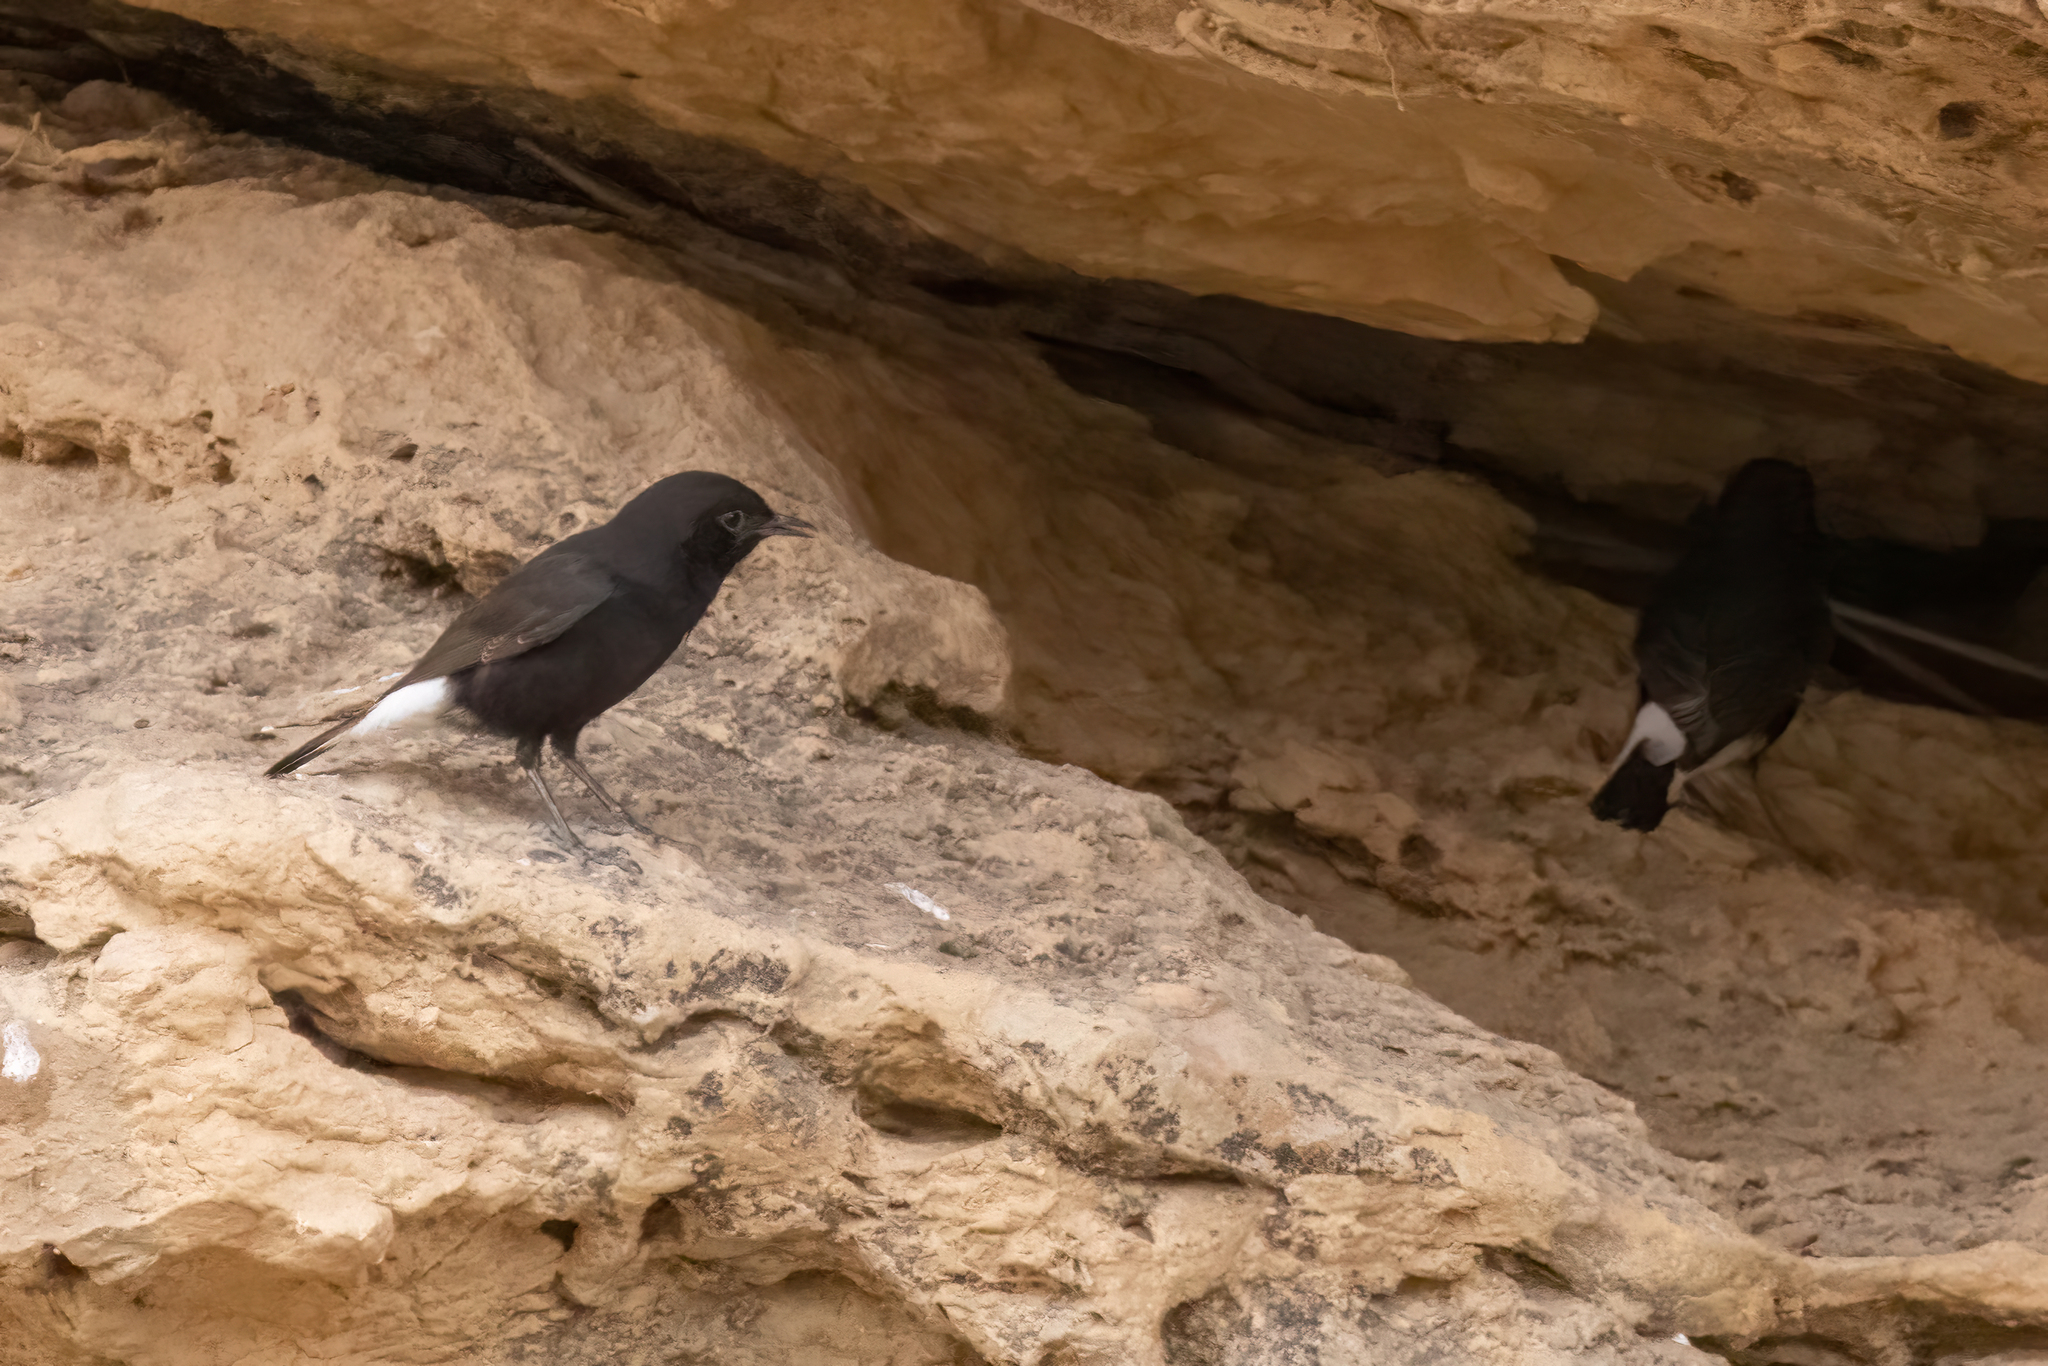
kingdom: Animalia
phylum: Chordata
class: Aves
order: Passeriformes
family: Muscicapidae
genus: Oenanthe
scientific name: Oenanthe leucura
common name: Black wheatear
